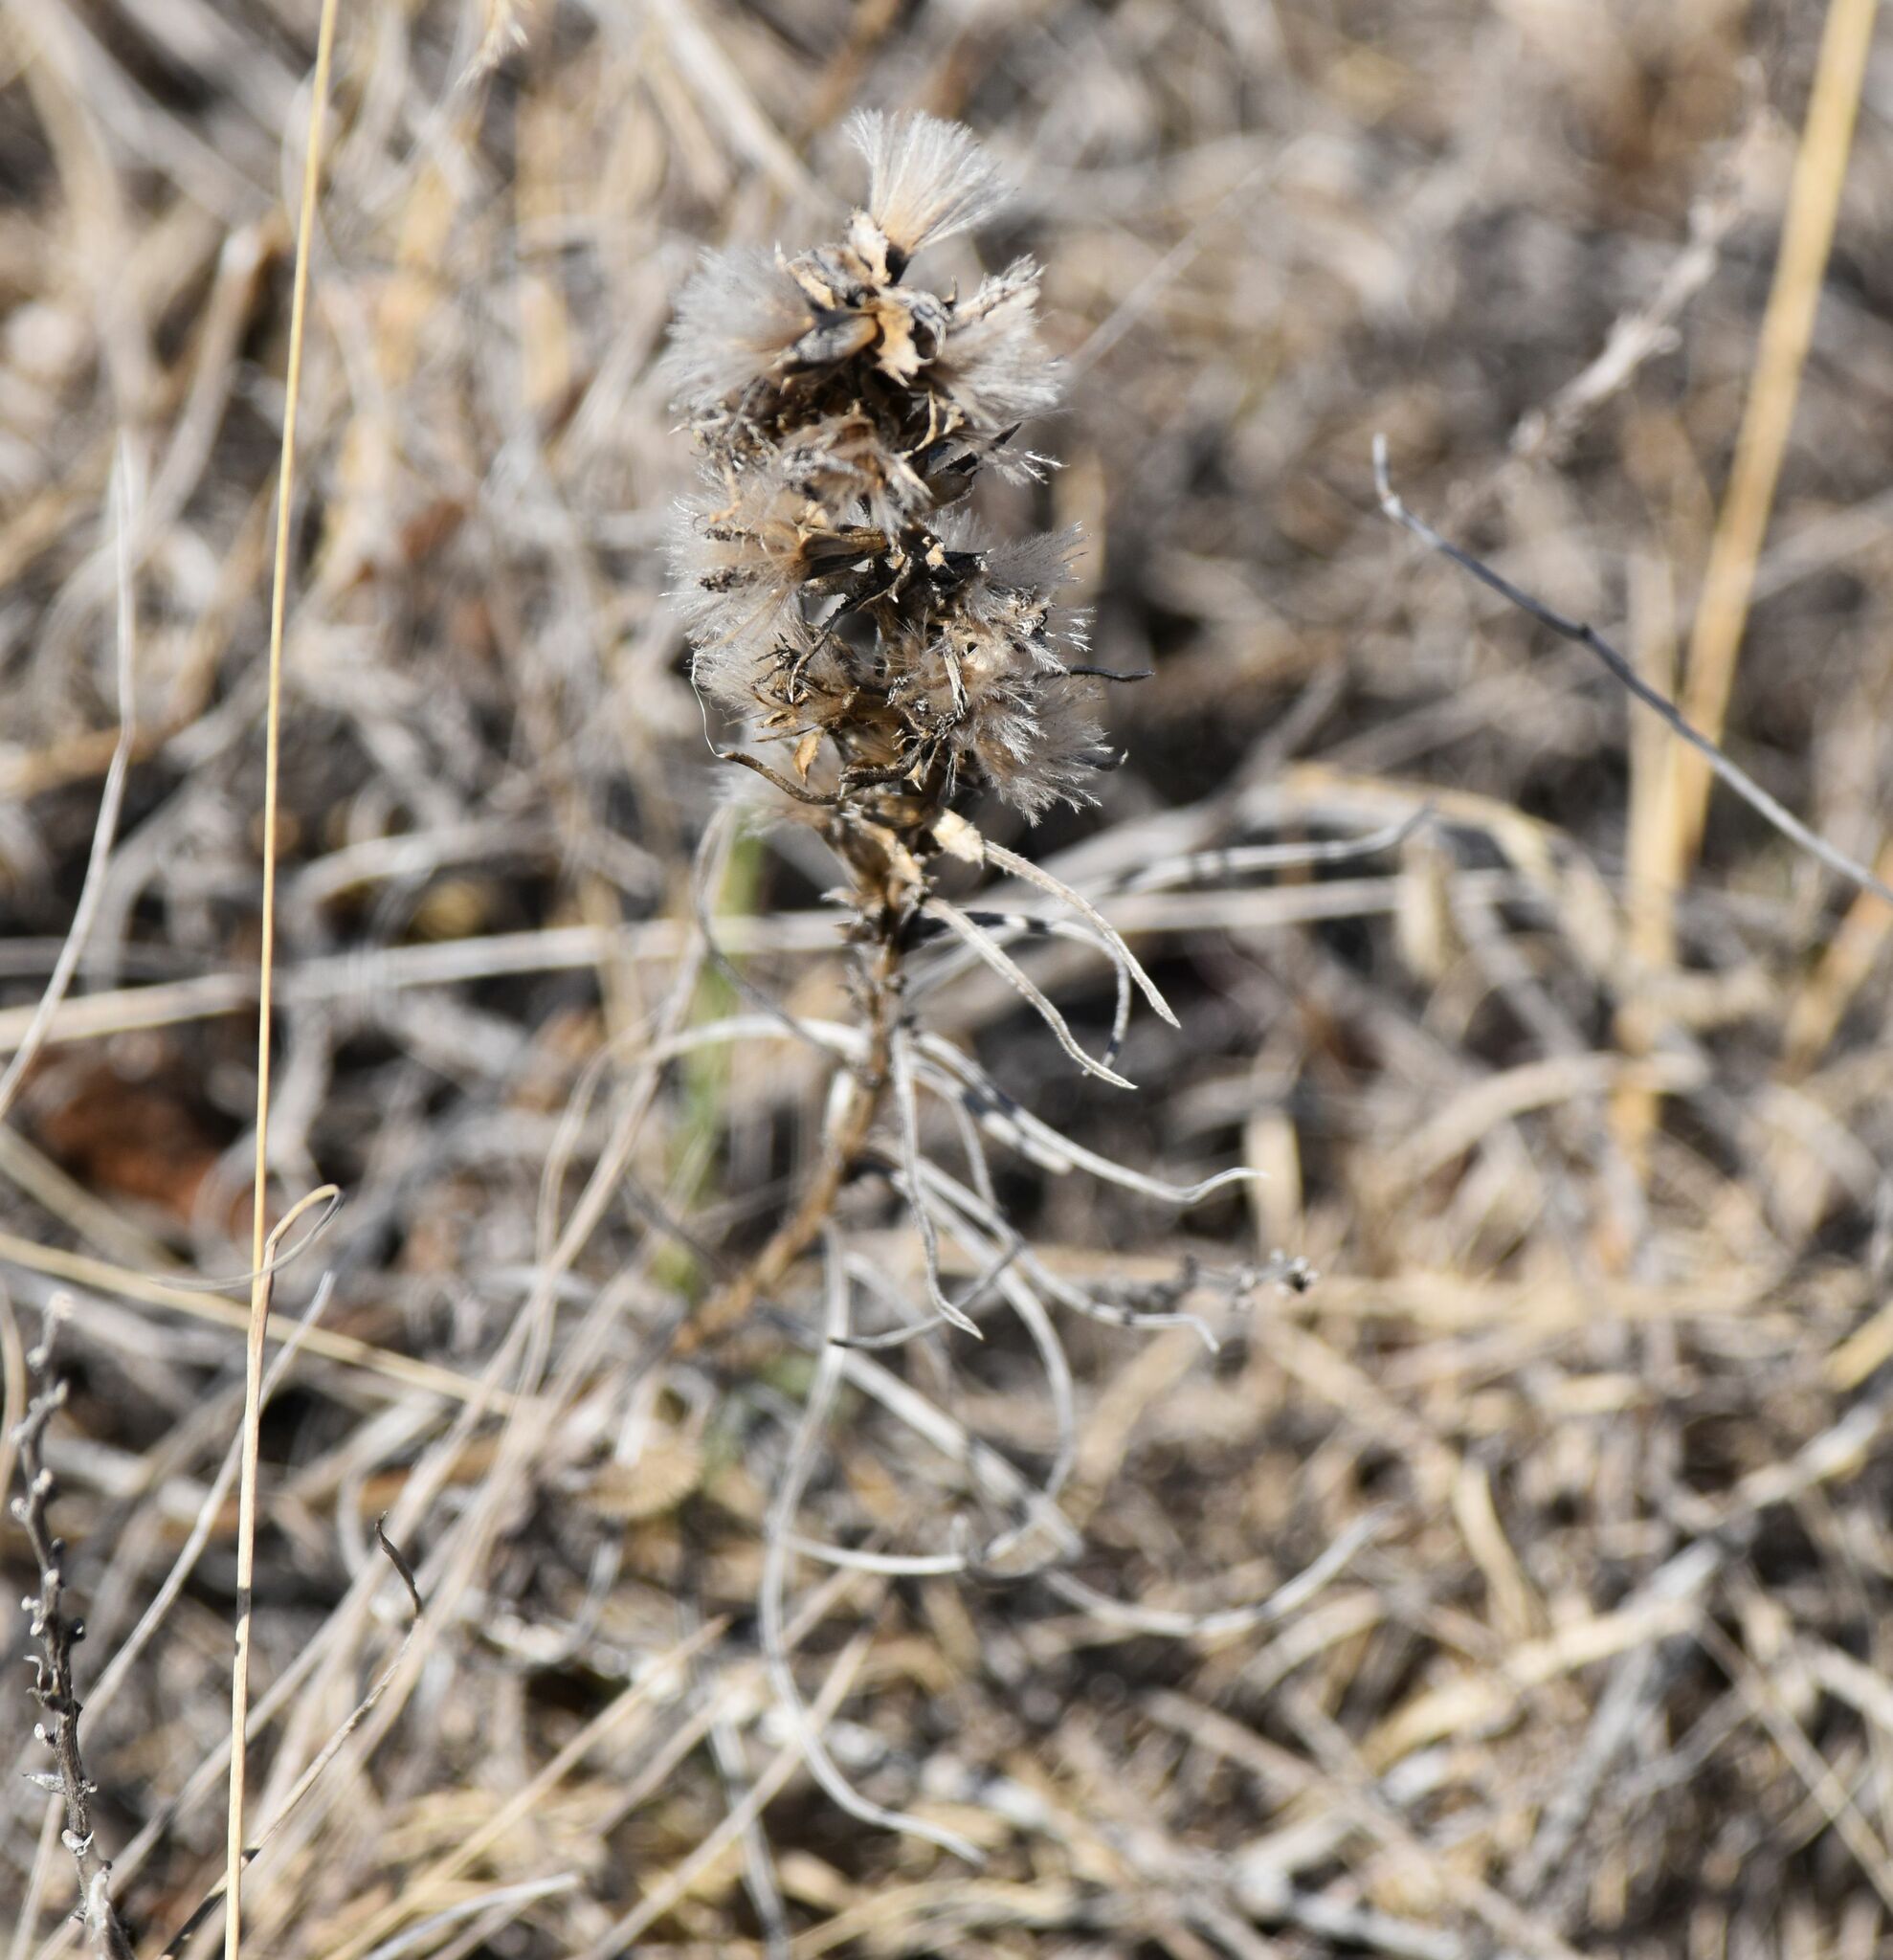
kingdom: Plantae
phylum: Tracheophyta
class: Magnoliopsida
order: Asterales
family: Asteraceae
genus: Liatris
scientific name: Liatris punctata
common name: Dotted gayfeather
